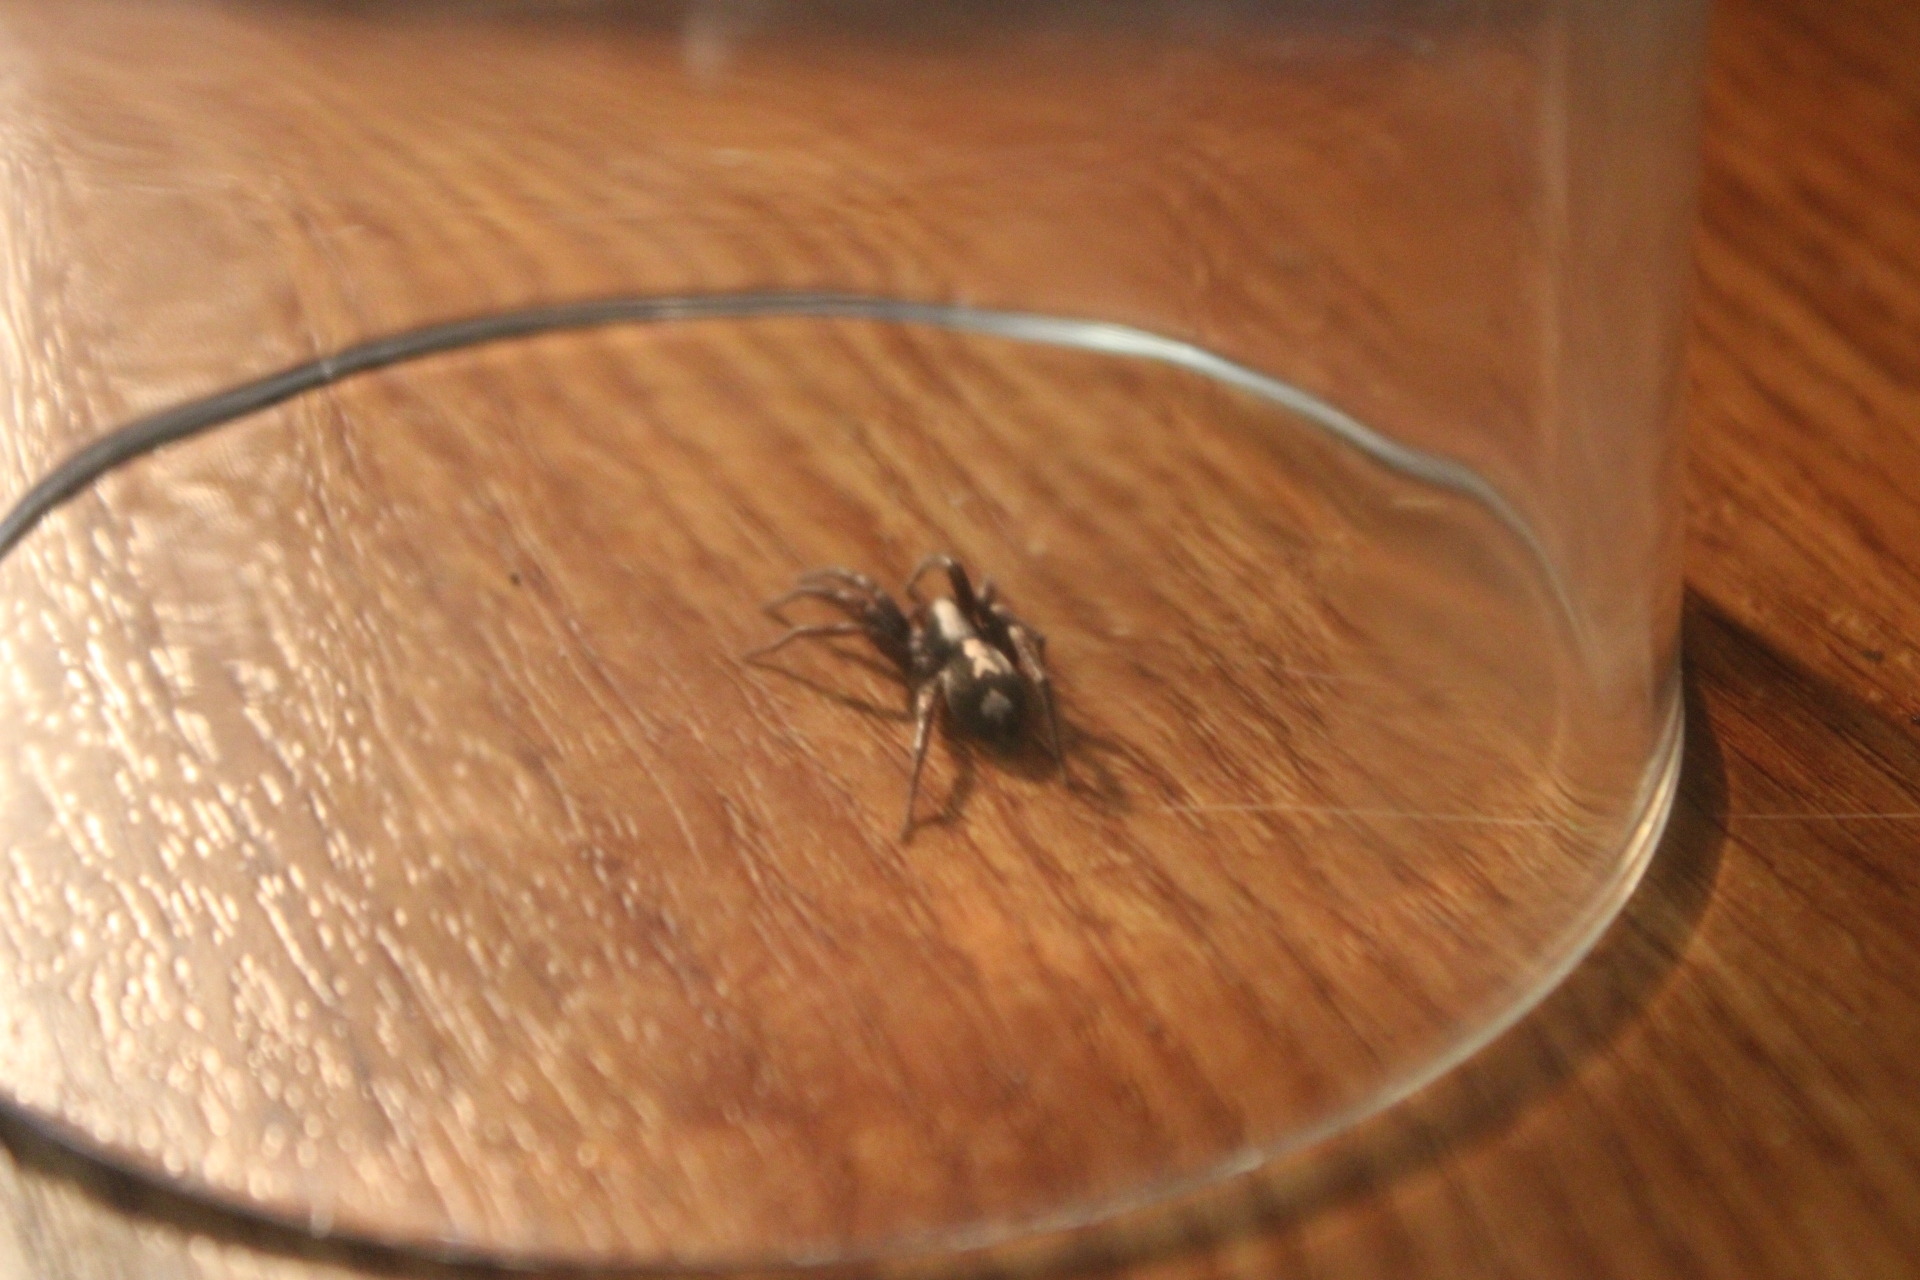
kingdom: Animalia
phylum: Arthropoda
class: Arachnida
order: Araneae
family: Gnaphosidae
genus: Herpyllus
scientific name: Herpyllus ecclesiasticus
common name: Eastern parson spider
